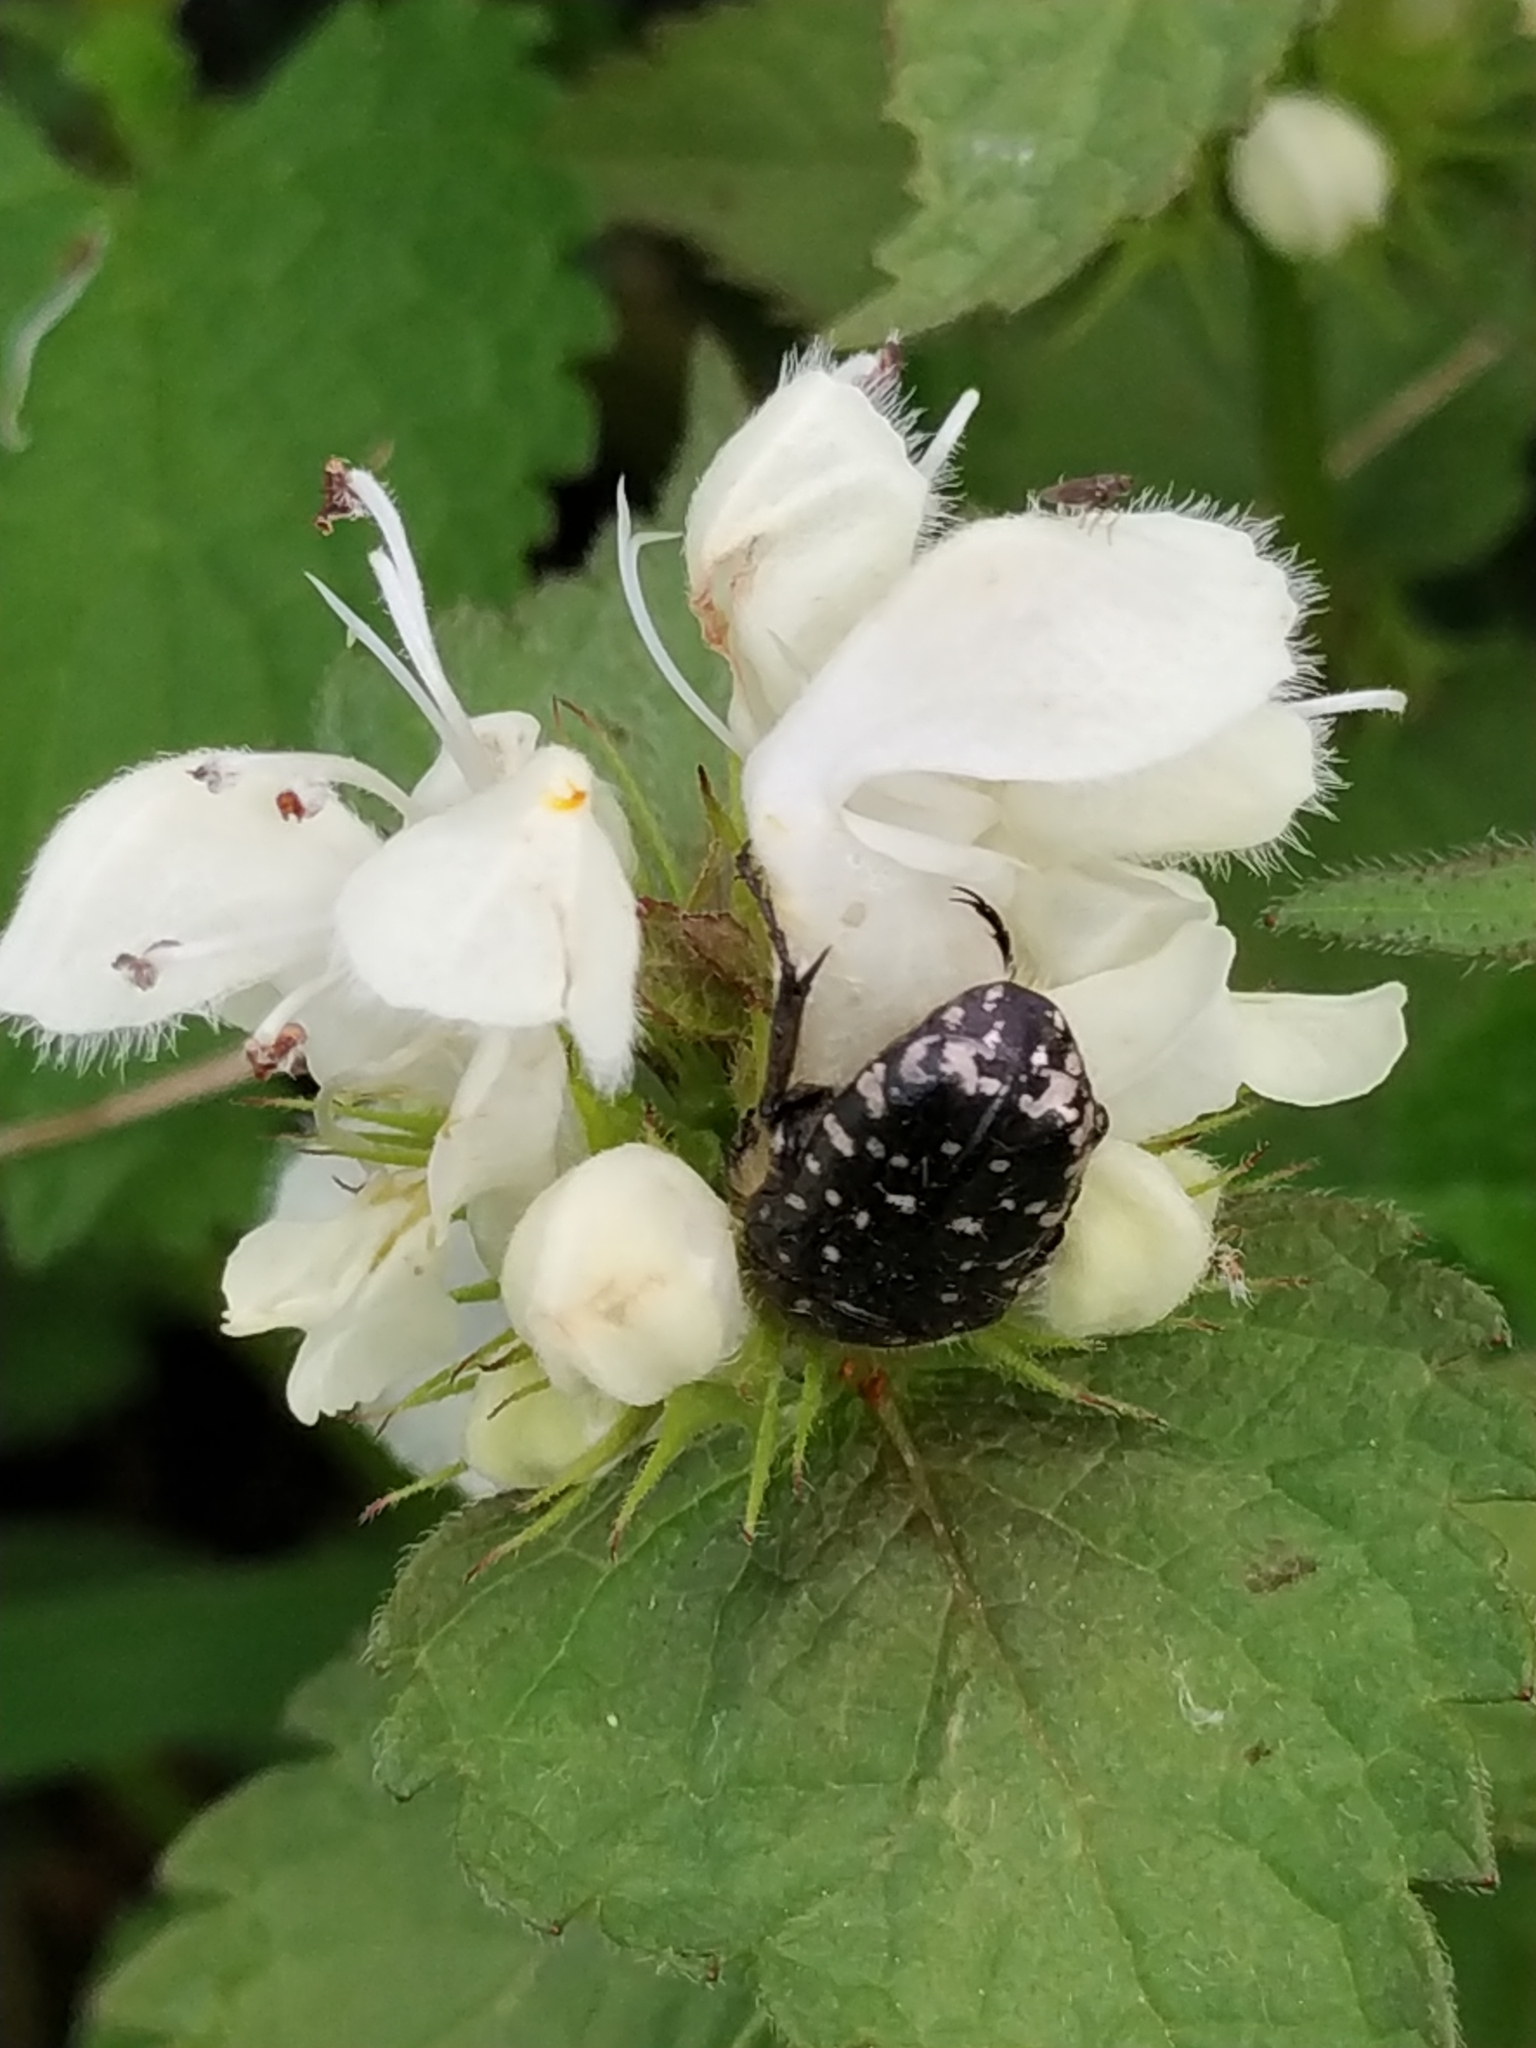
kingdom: Animalia
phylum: Arthropoda
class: Insecta
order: Coleoptera
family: Scarabaeidae
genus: Oxythyrea
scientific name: Oxythyrea funesta
